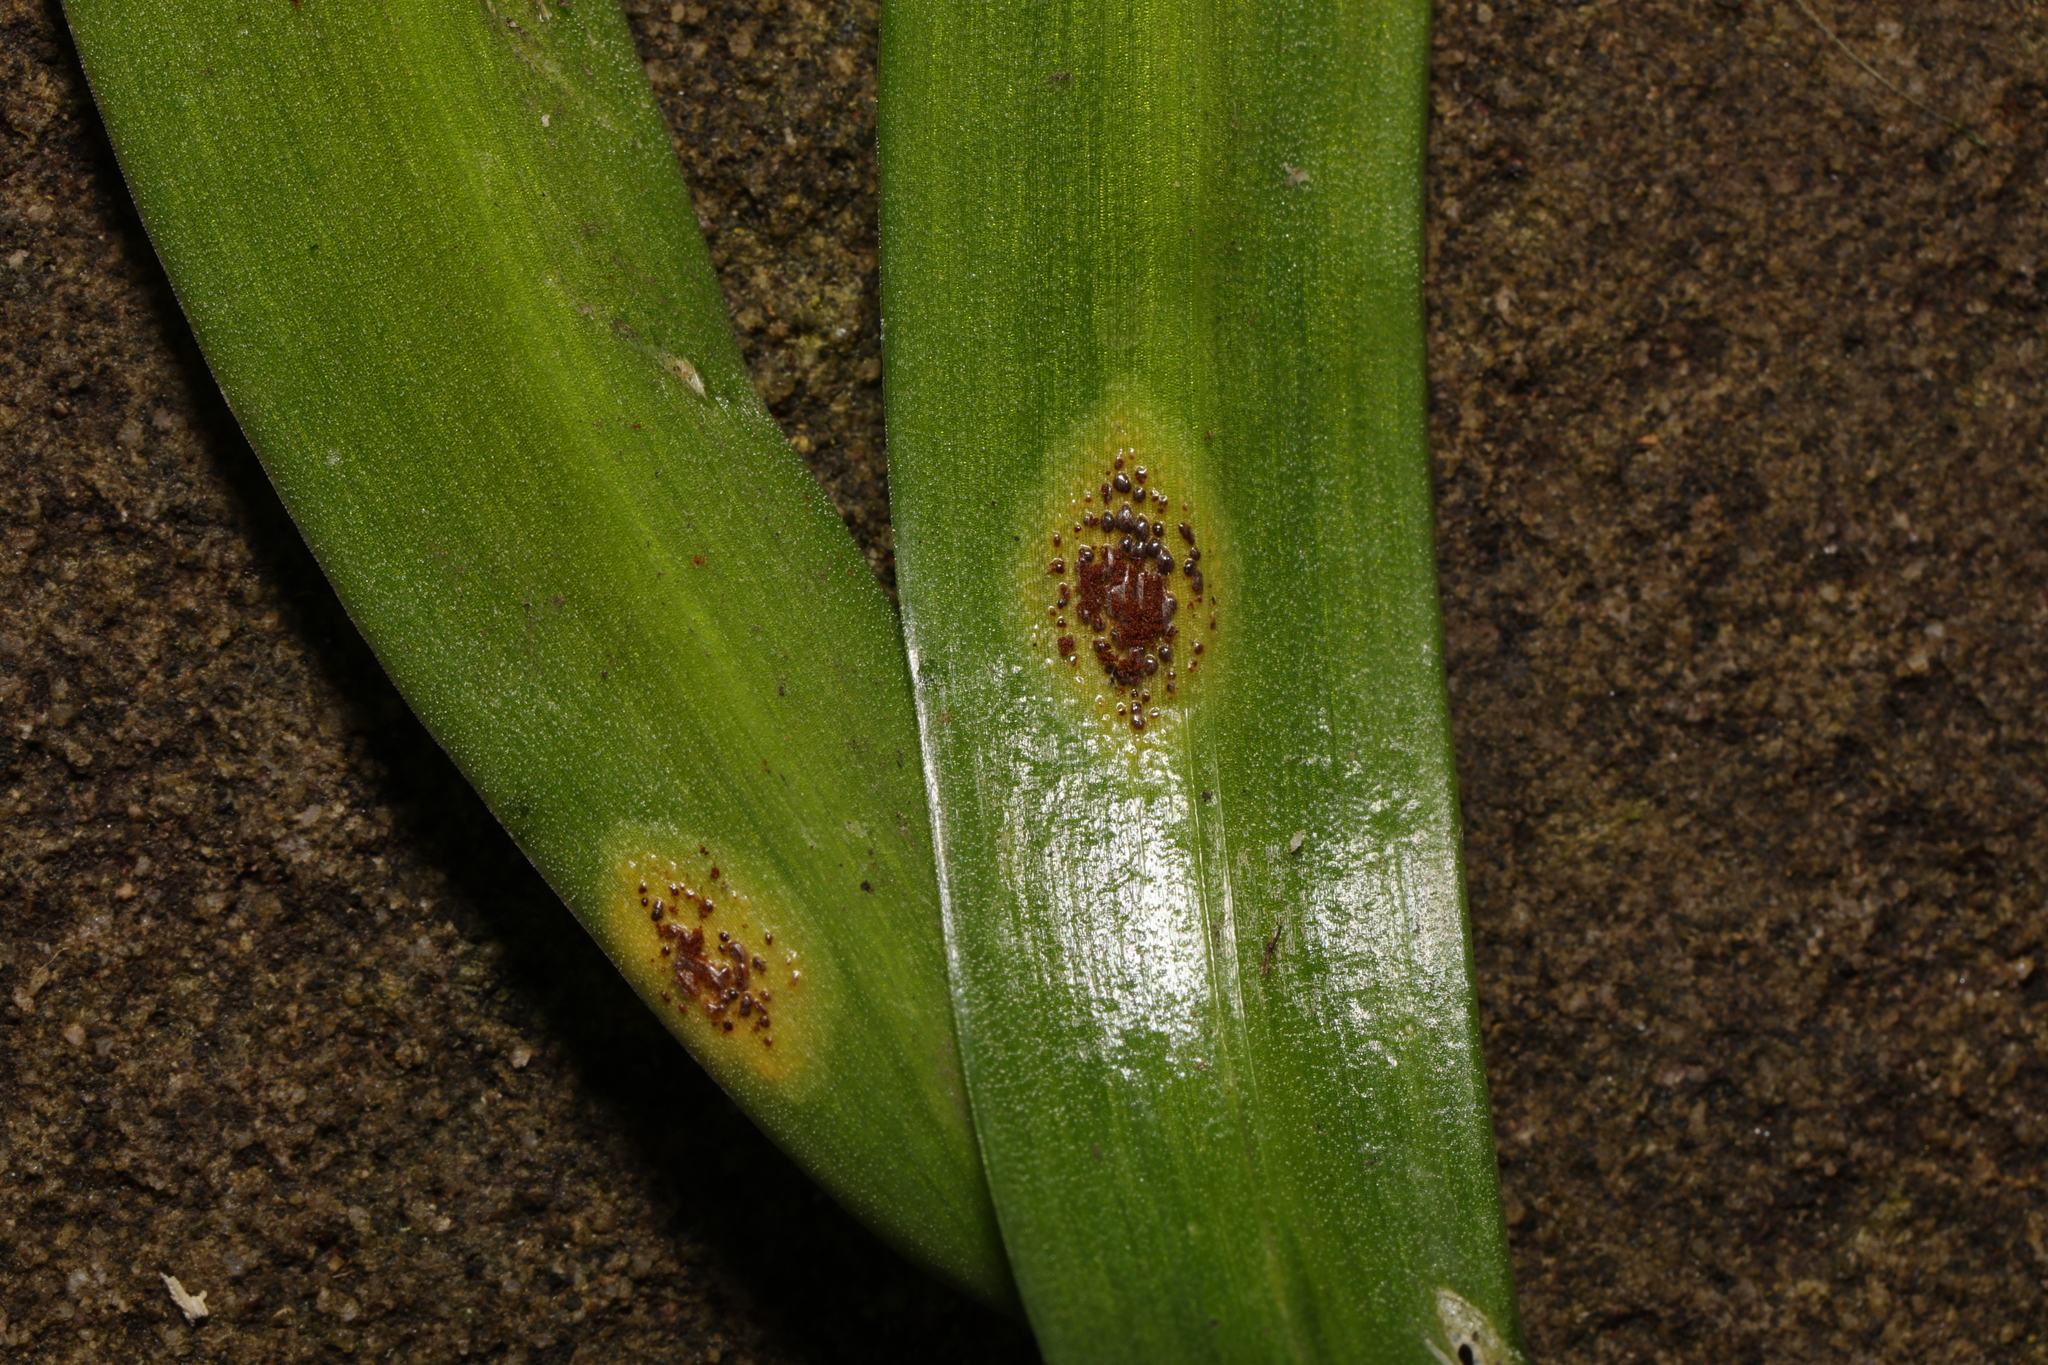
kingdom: Fungi
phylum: Basidiomycota
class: Pucciniomycetes
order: Pucciniales
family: Pucciniaceae
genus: Uromyces
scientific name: Uromyces hyacinthi
